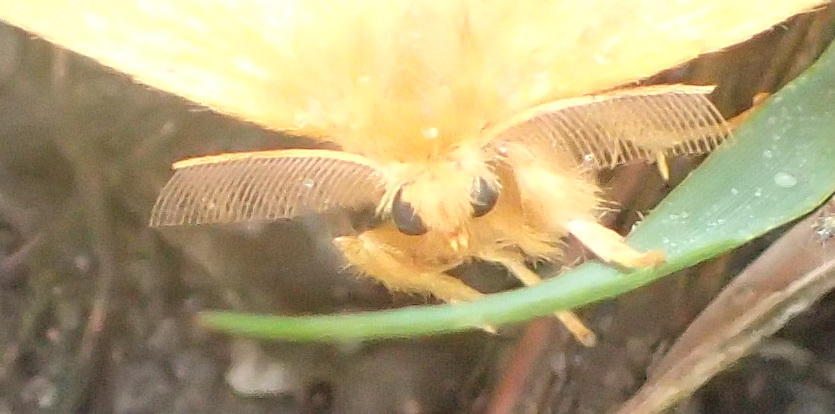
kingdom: Animalia
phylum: Arthropoda
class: Insecta
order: Lepidoptera
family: Erebidae
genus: Euproctis
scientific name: Euproctis crocata
